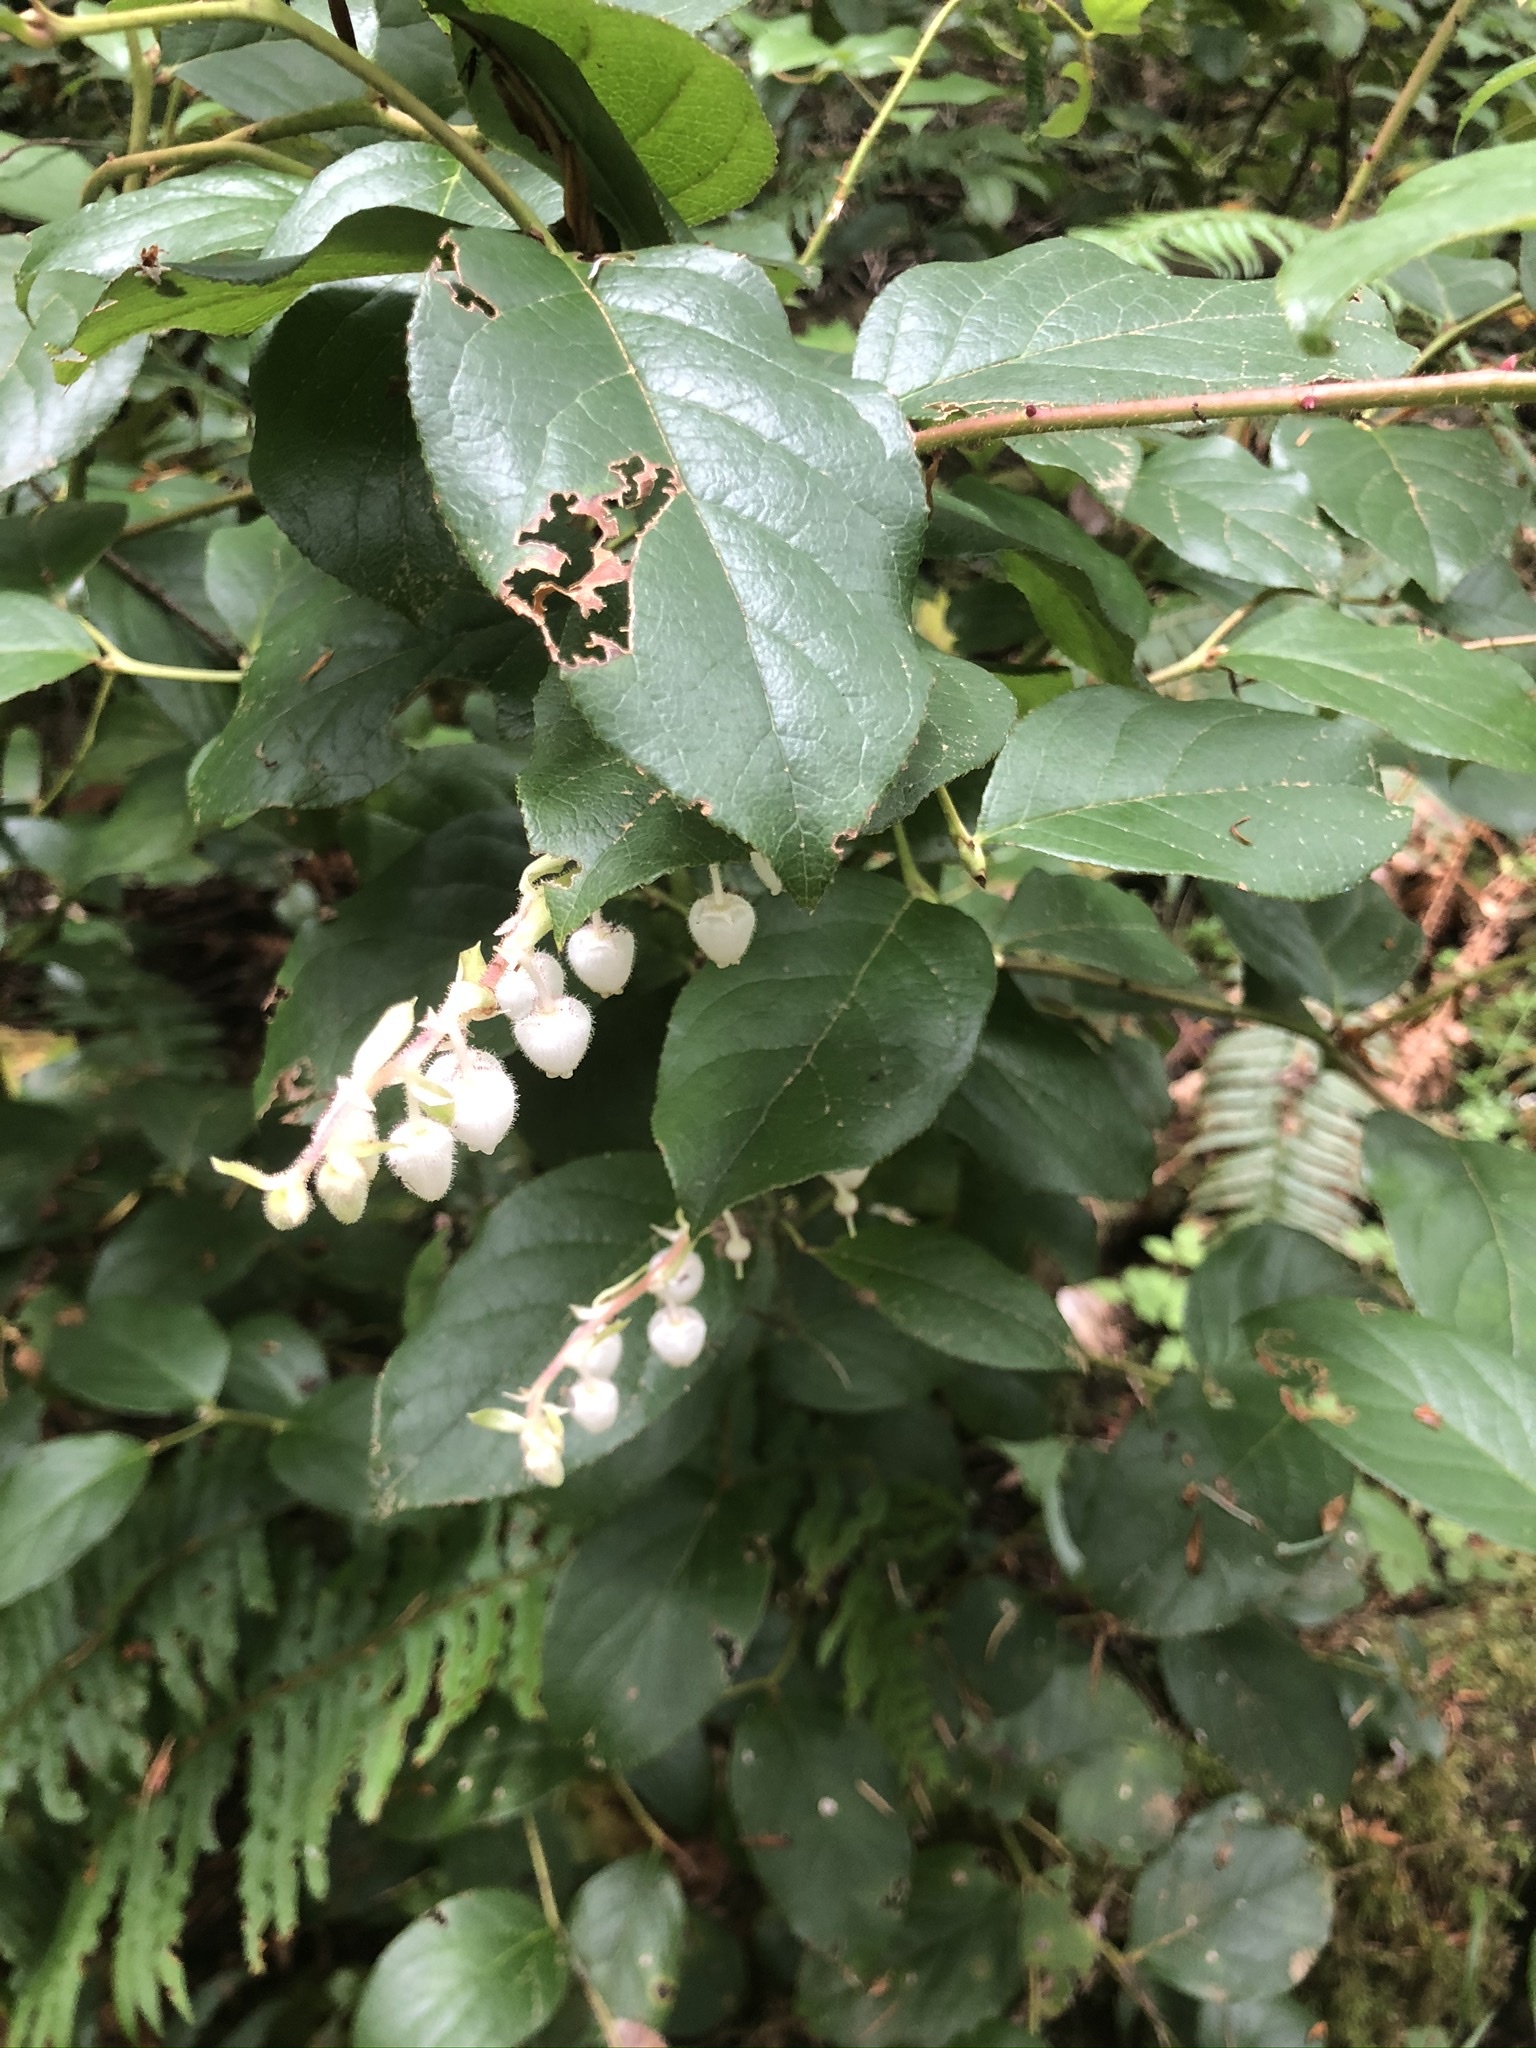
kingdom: Plantae
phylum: Tracheophyta
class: Magnoliopsida
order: Ericales
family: Ericaceae
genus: Gaultheria
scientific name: Gaultheria shallon
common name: Shallon
